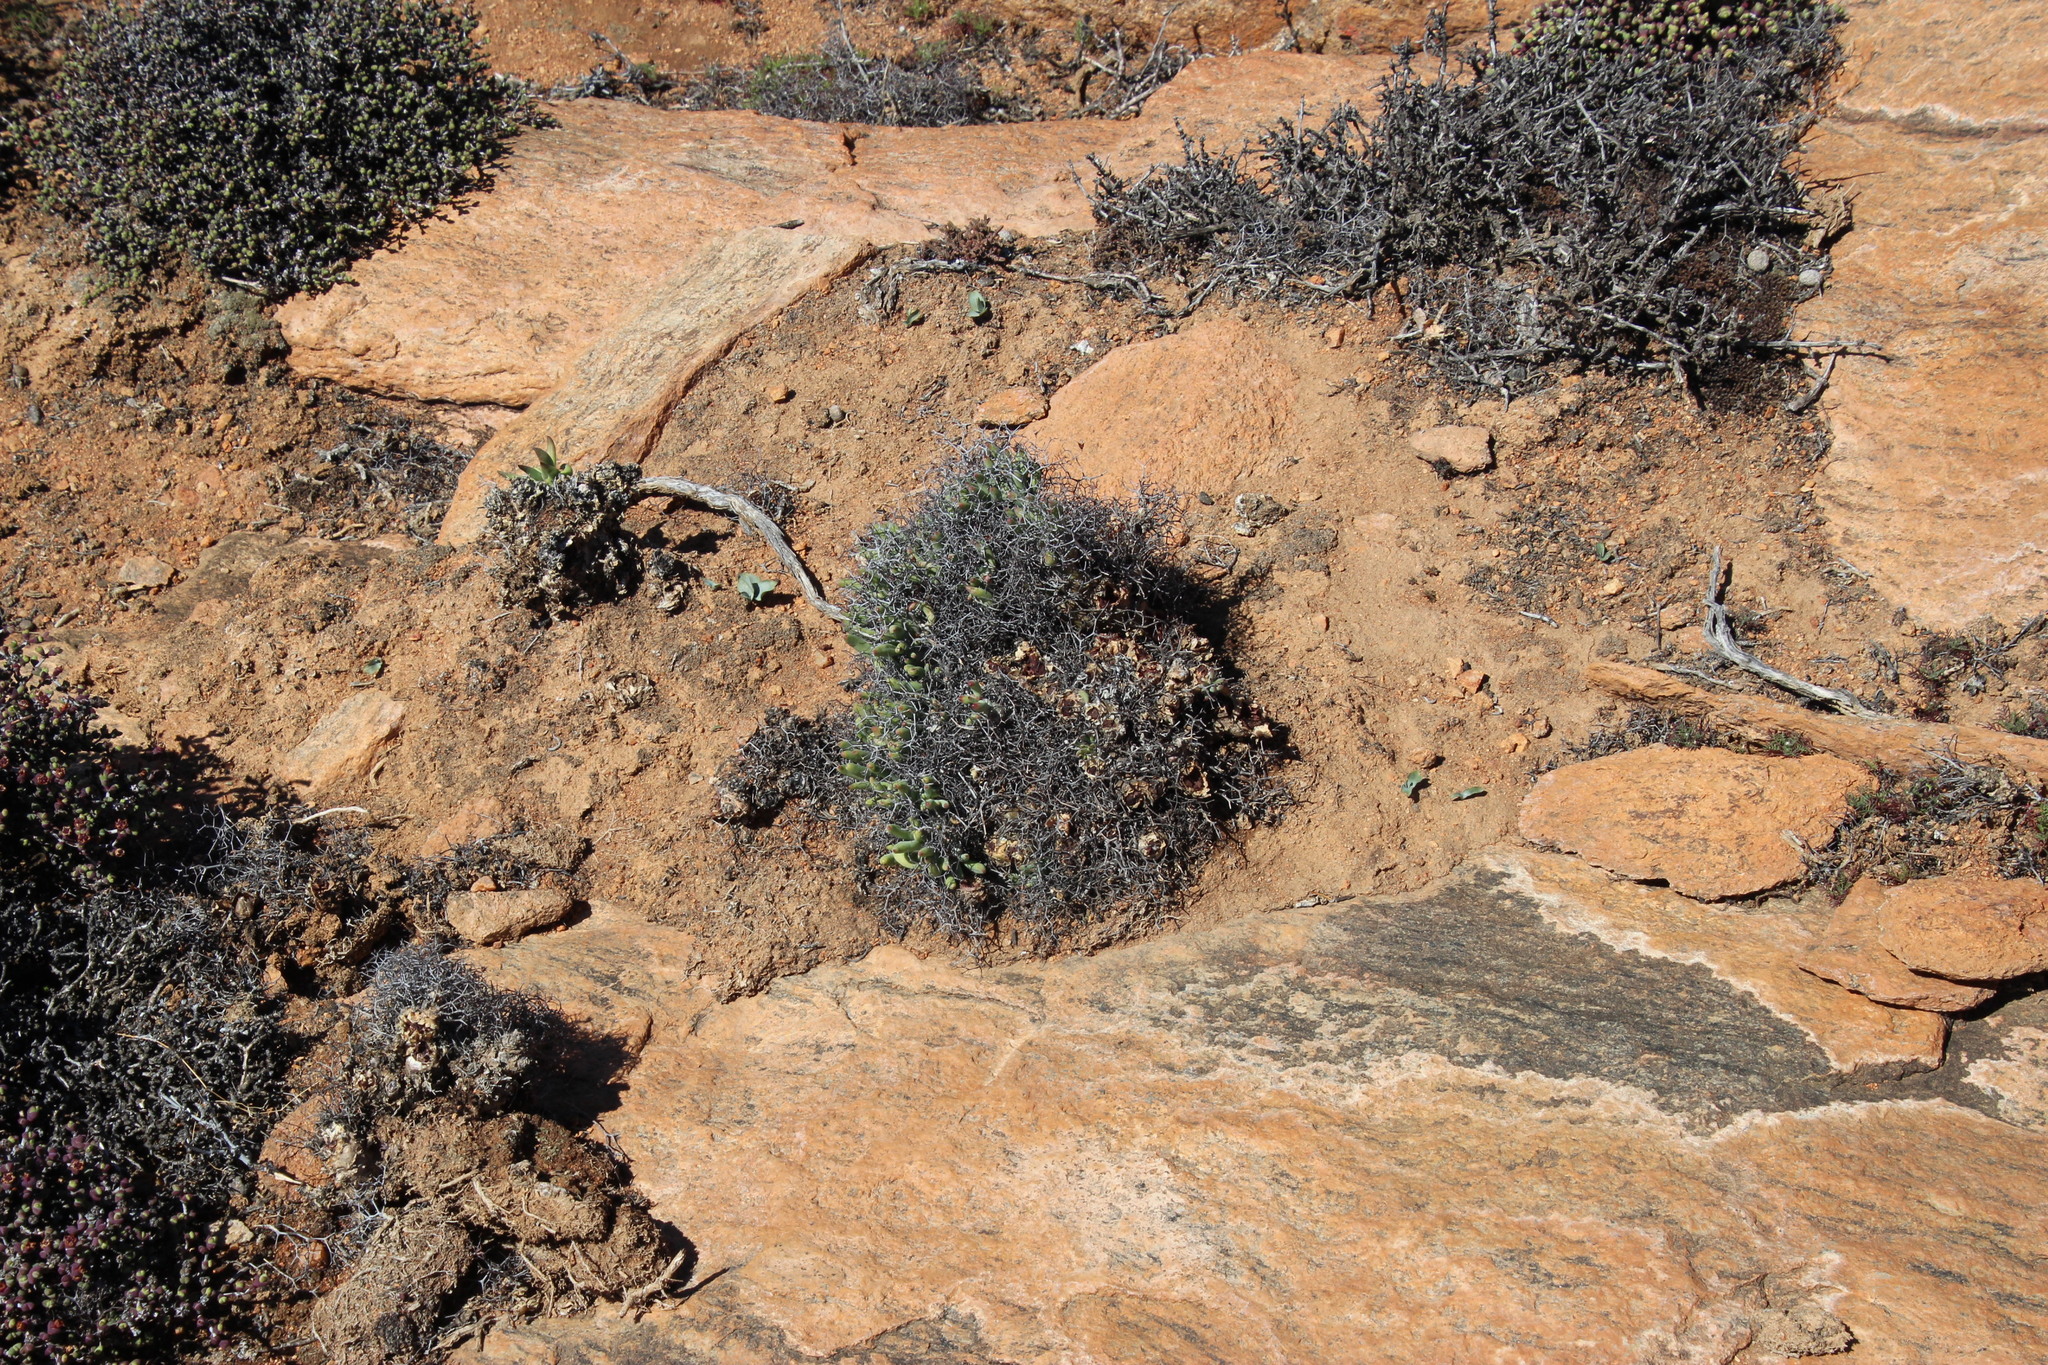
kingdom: Plantae
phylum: Tracheophyta
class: Magnoliopsida
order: Saxifragales
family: Crassulaceae
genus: Tylecodon
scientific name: Tylecodon reticulatus
